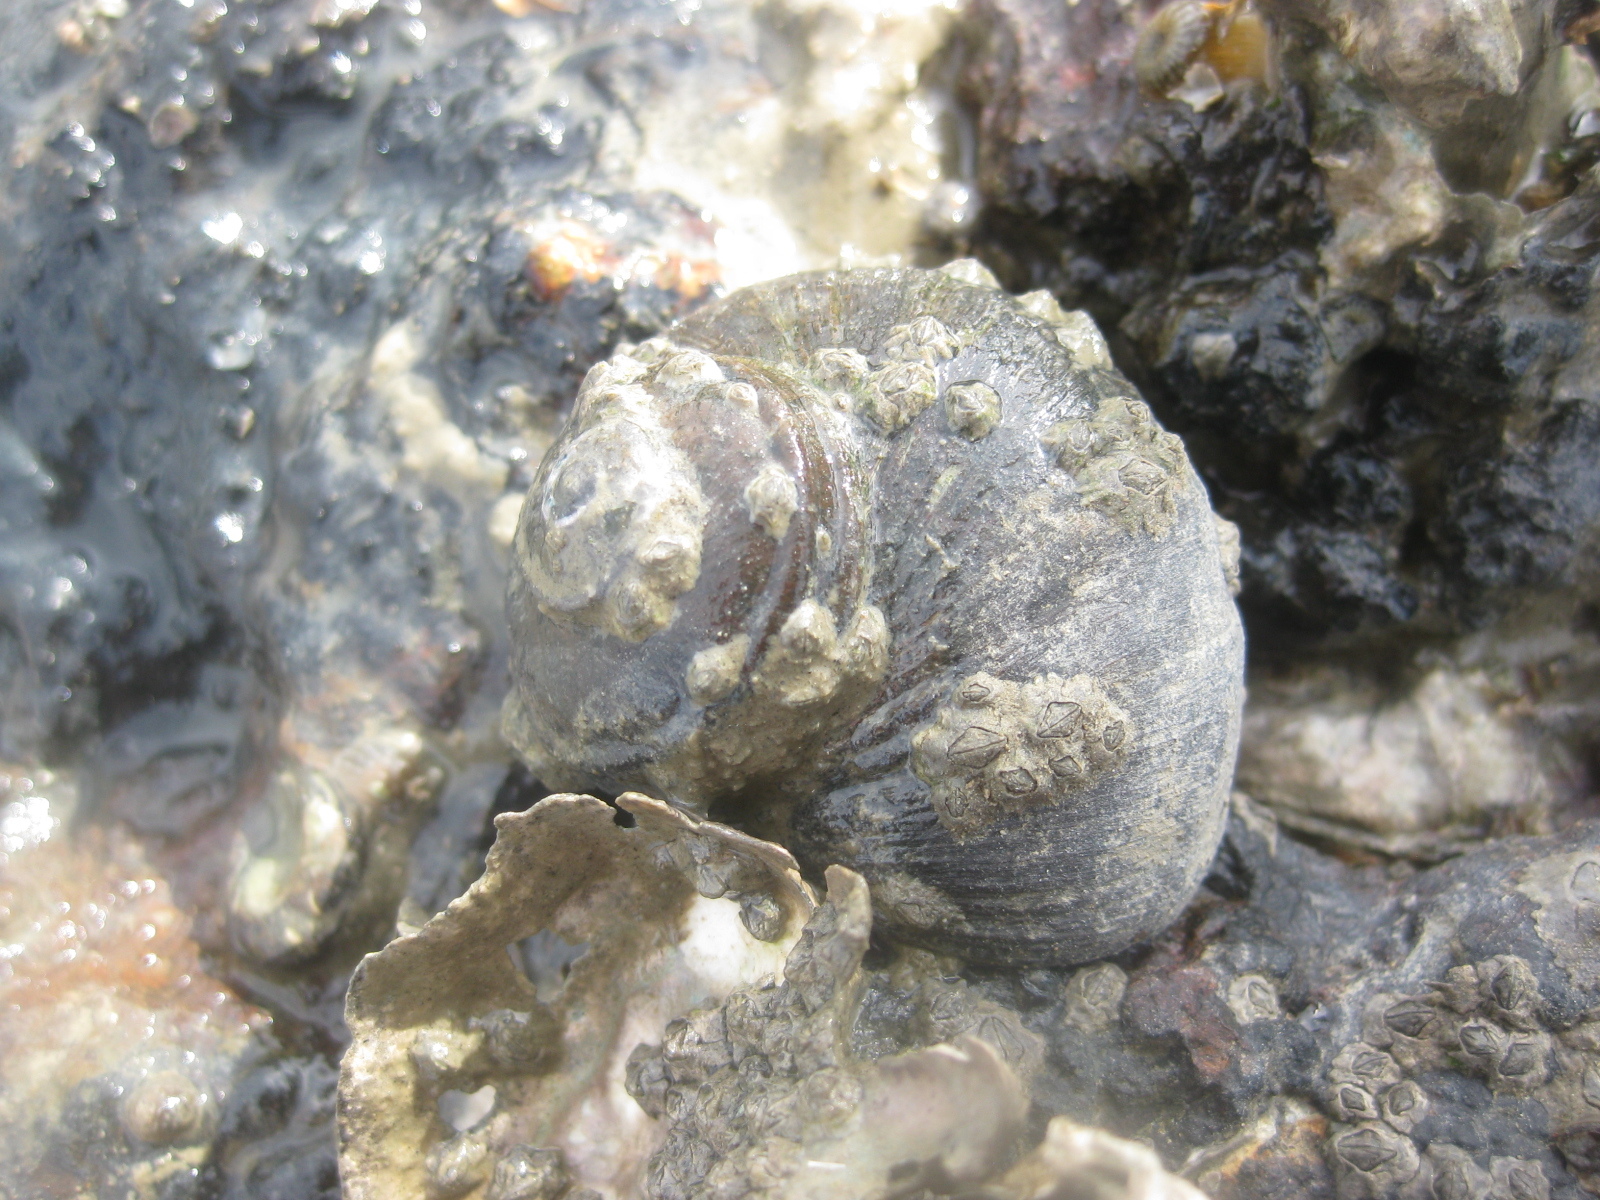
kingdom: Animalia
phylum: Mollusca
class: Gastropoda
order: Trochida
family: Turbinidae
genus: Lunella
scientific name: Lunella smaragda
